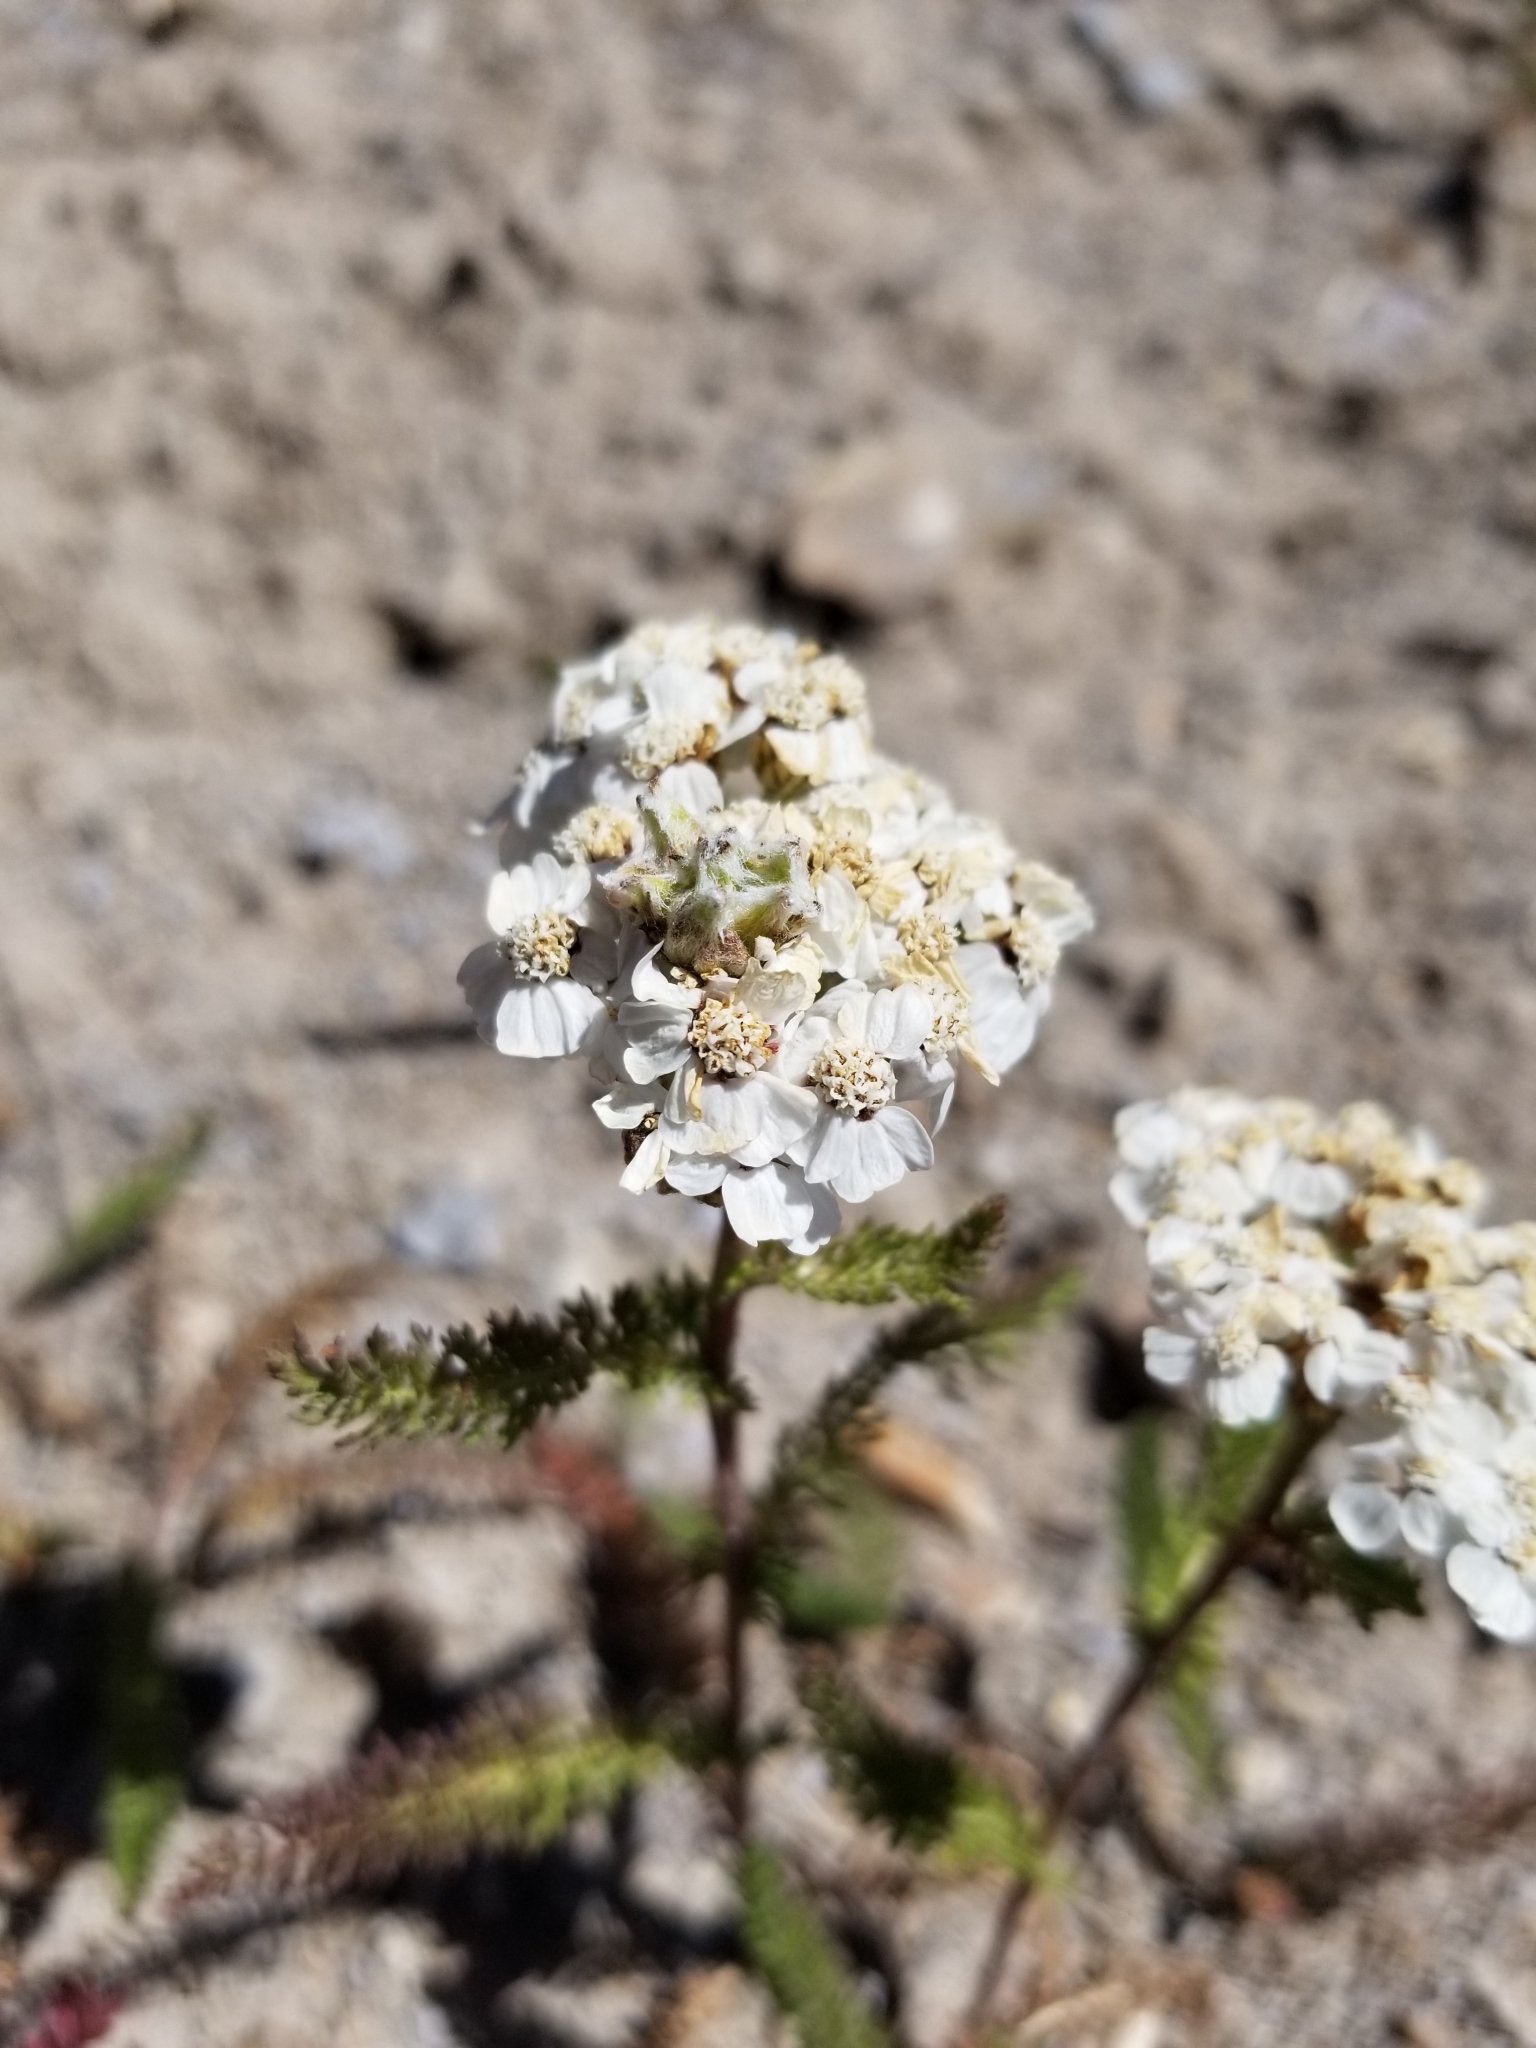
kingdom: Plantae
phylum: Tracheophyta
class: Magnoliopsida
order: Asterales
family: Asteraceae
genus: Achillea
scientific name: Achillea millefolium
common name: Yarrow
